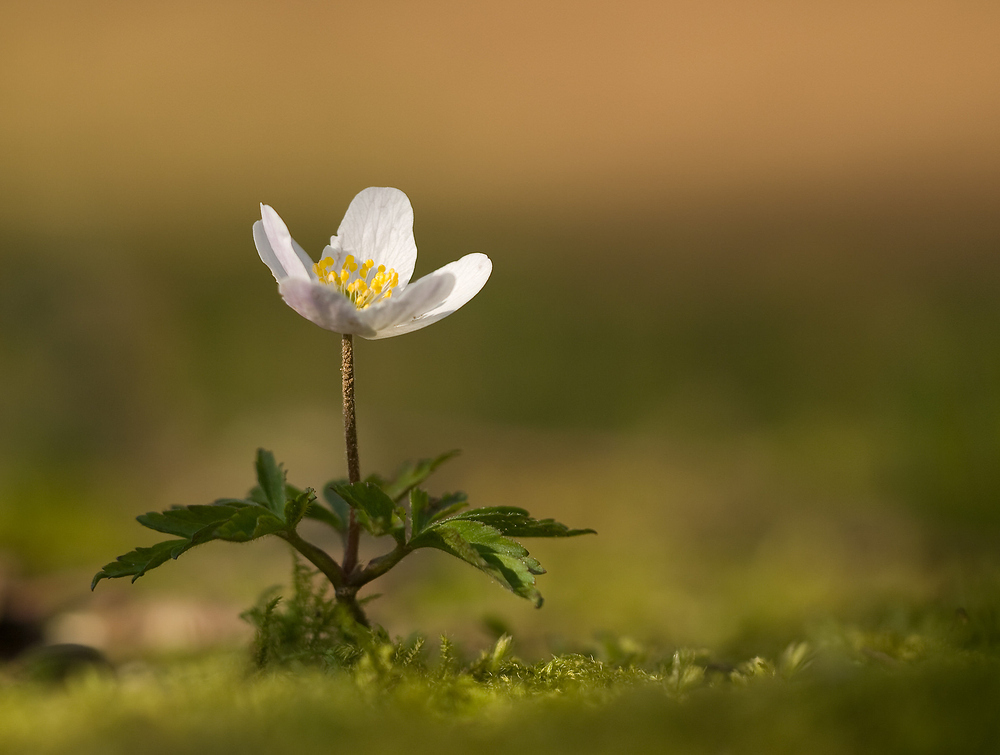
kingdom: Plantae
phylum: Tracheophyta
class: Magnoliopsida
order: Ranunculales
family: Ranunculaceae
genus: Anemone
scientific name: Anemone nemorosa
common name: Wood anemone
